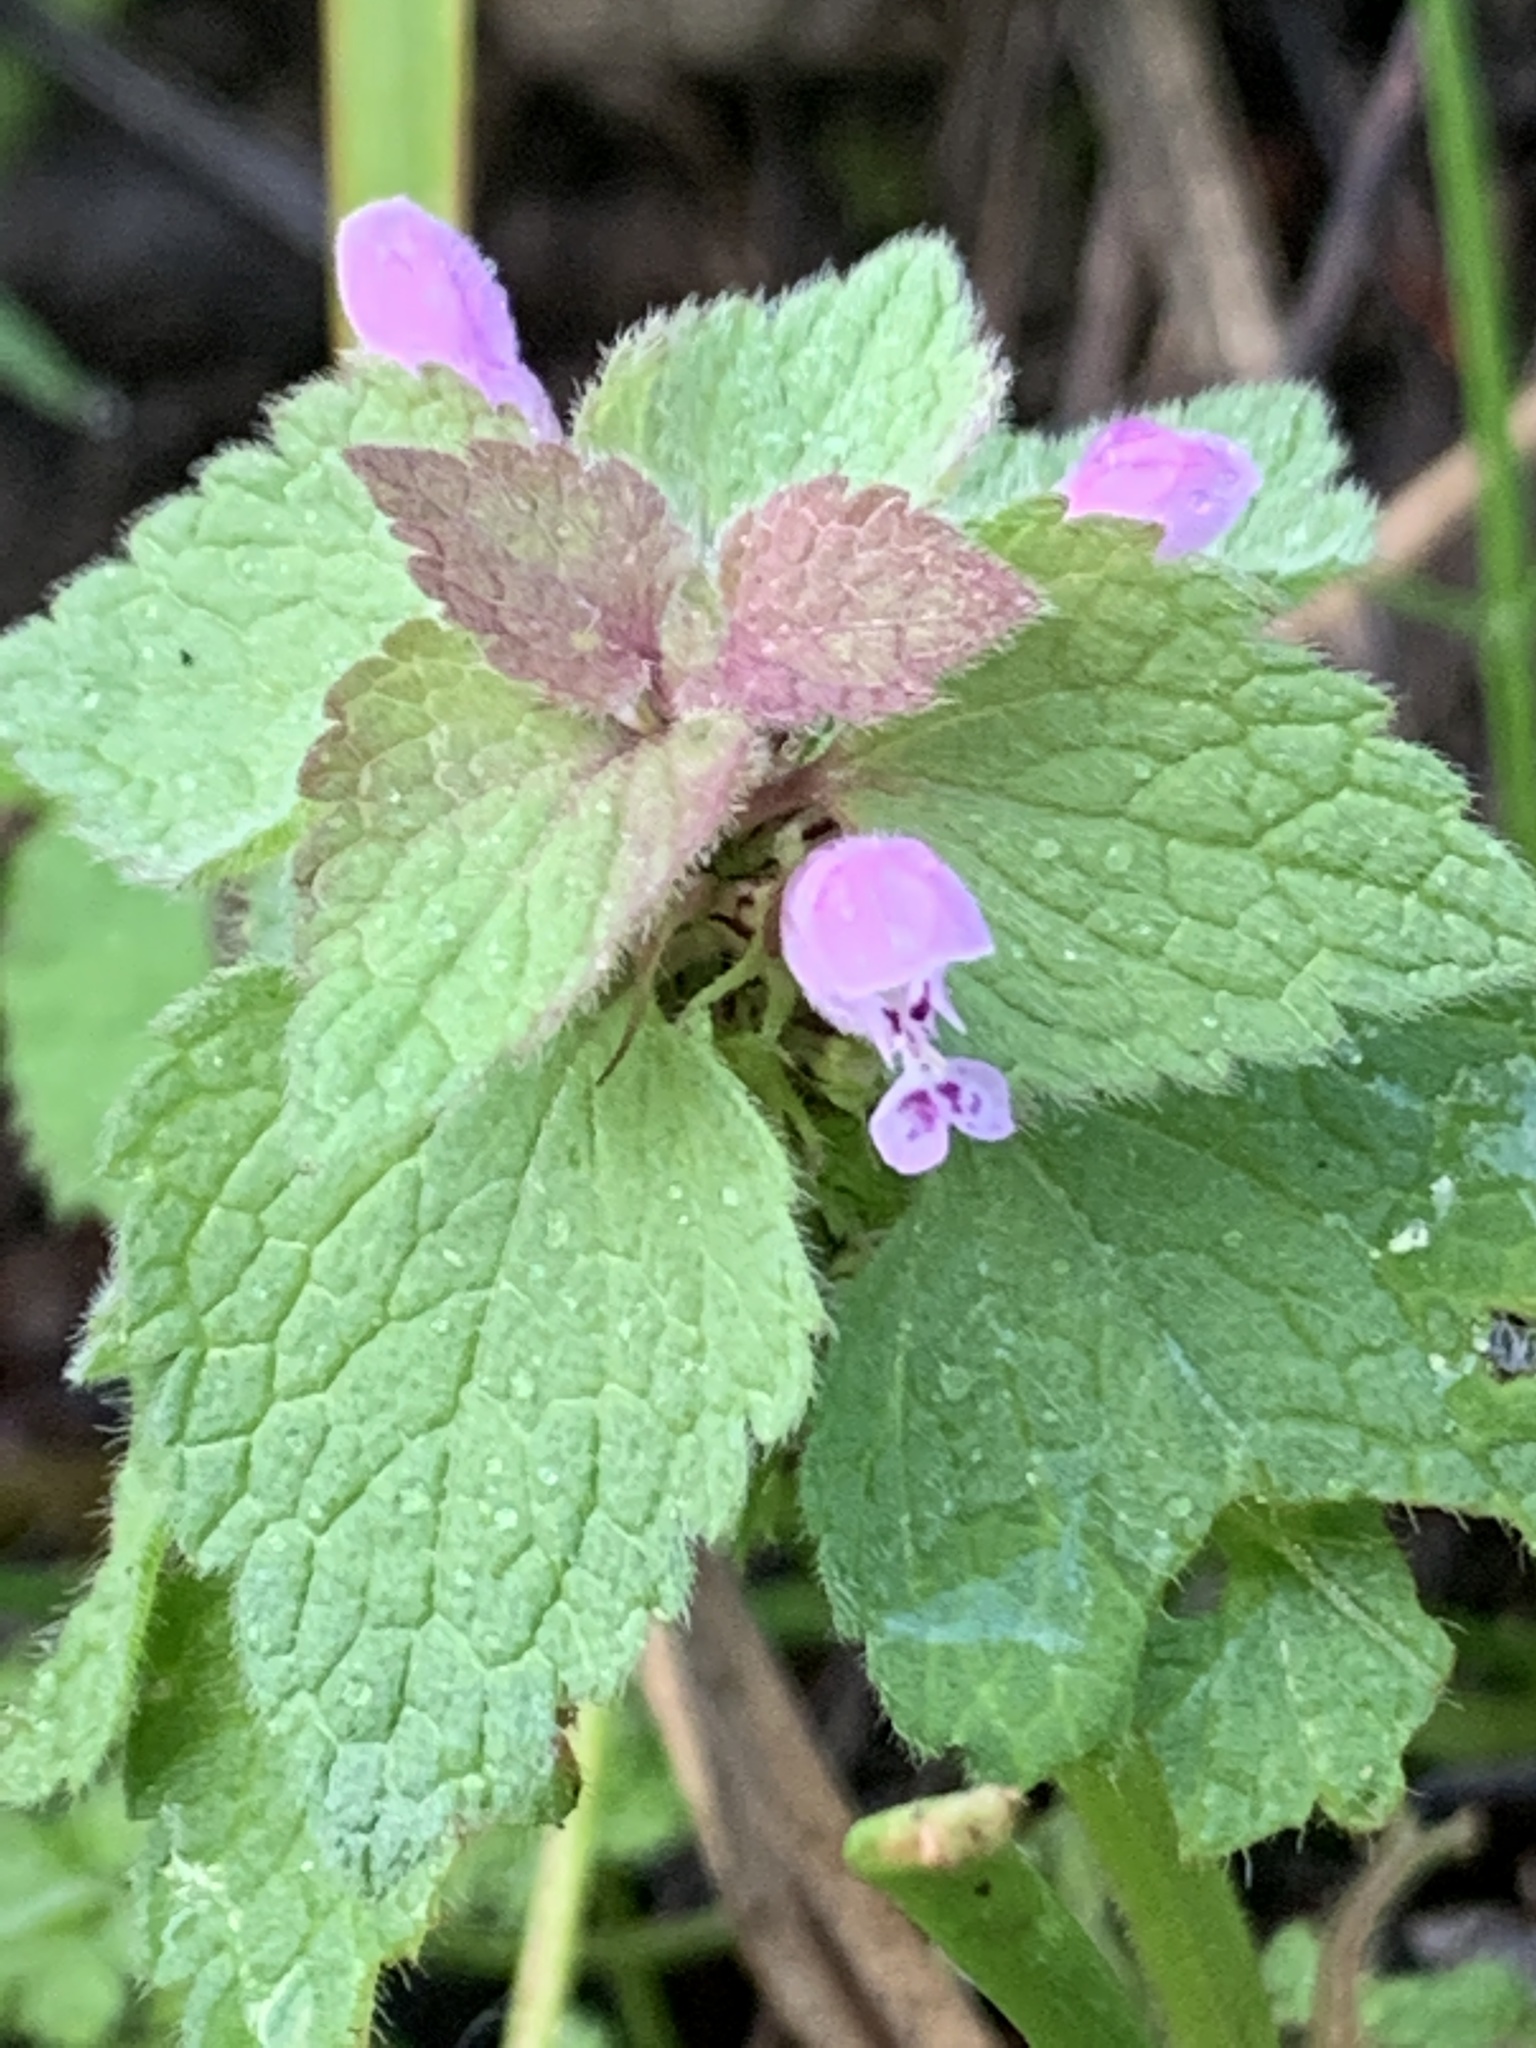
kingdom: Plantae
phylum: Tracheophyta
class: Magnoliopsida
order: Lamiales
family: Lamiaceae
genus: Lamium
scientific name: Lamium purpureum
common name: Red dead-nettle
